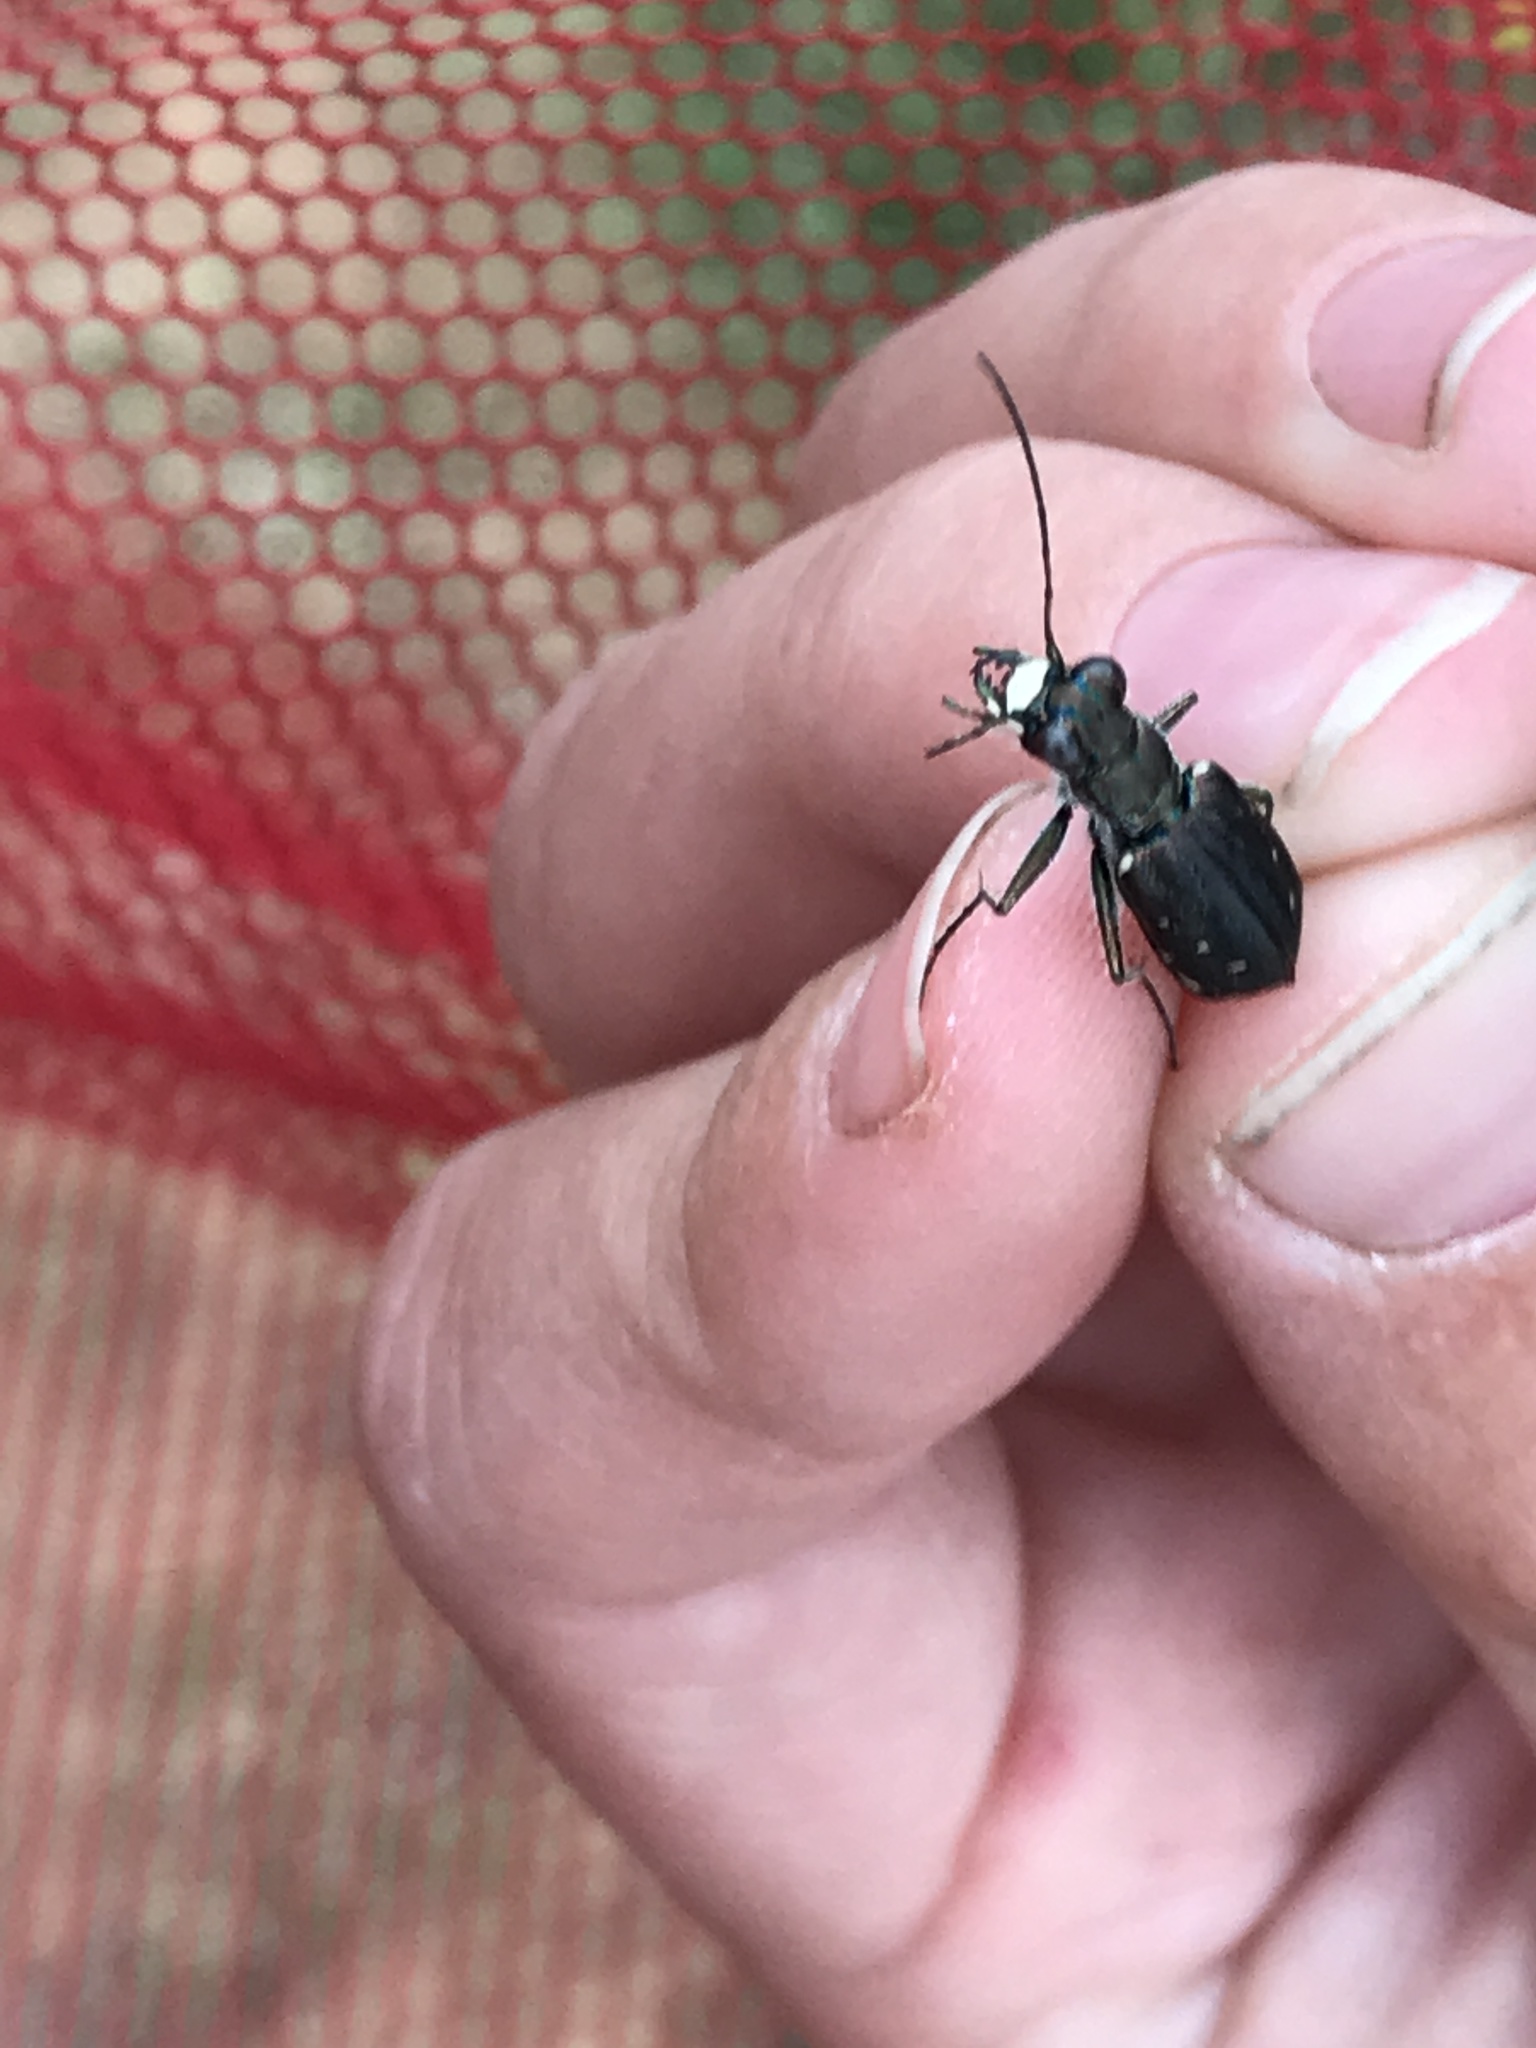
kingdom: Animalia
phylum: Arthropoda
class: Insecta
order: Coleoptera
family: Carabidae
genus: Cicindela
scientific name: Cicindela punctulata
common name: Punctured tiger beetle
